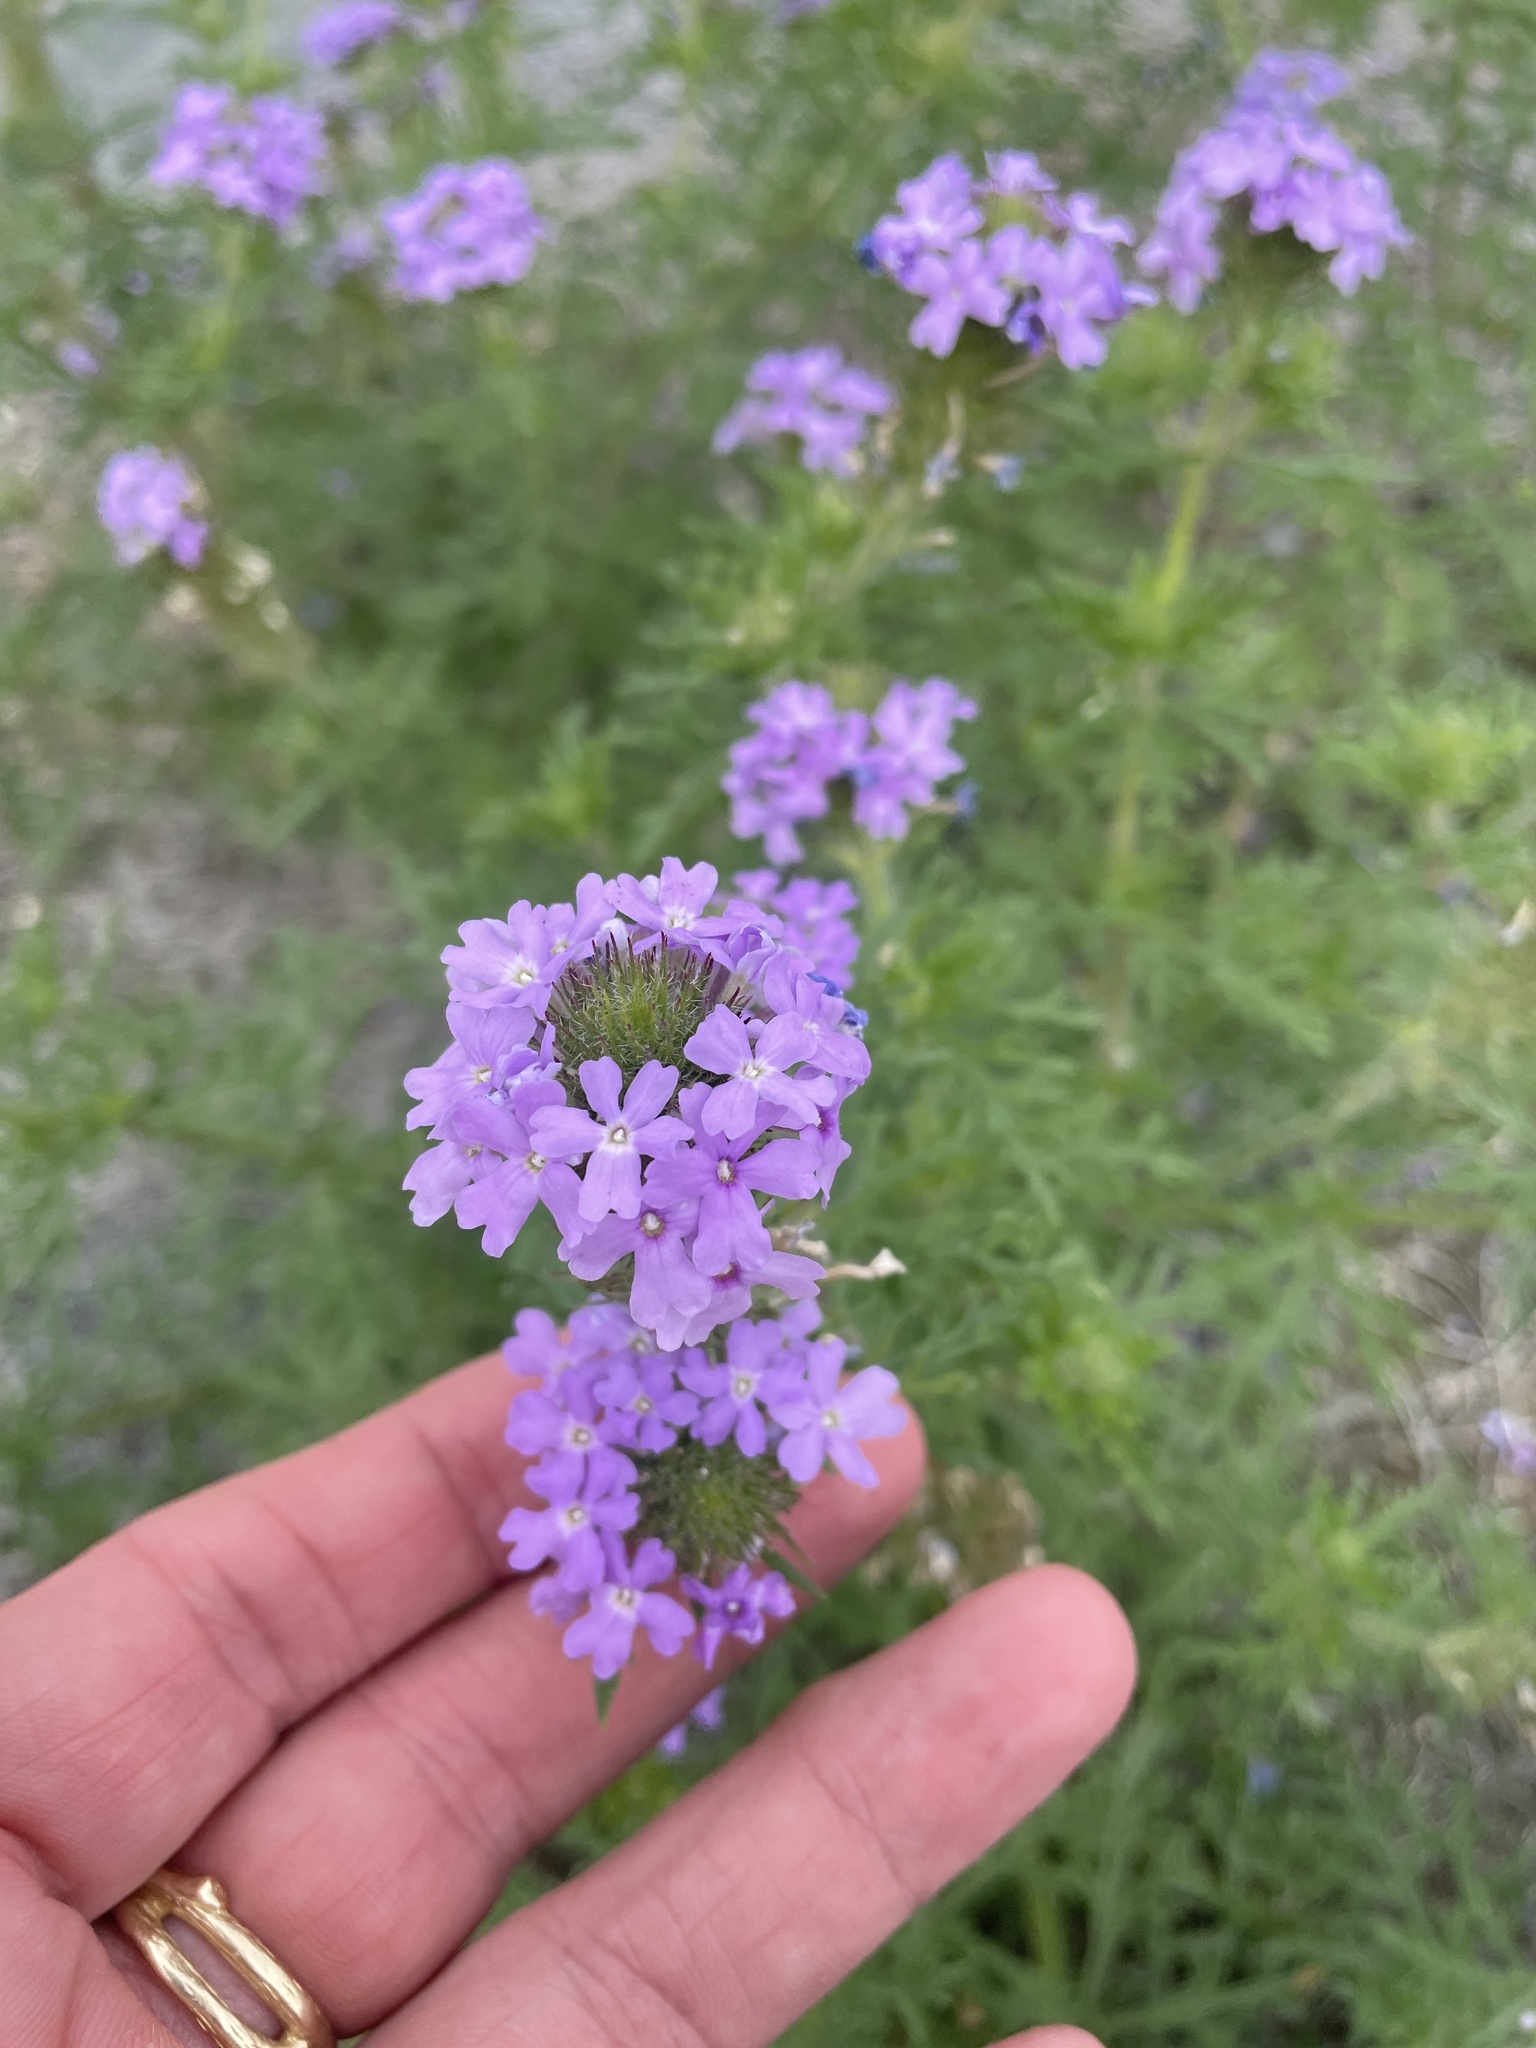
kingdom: Plantae
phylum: Tracheophyta
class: Magnoliopsida
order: Lamiales
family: Verbenaceae
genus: Verbena
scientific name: Verbena bipinnatifida
